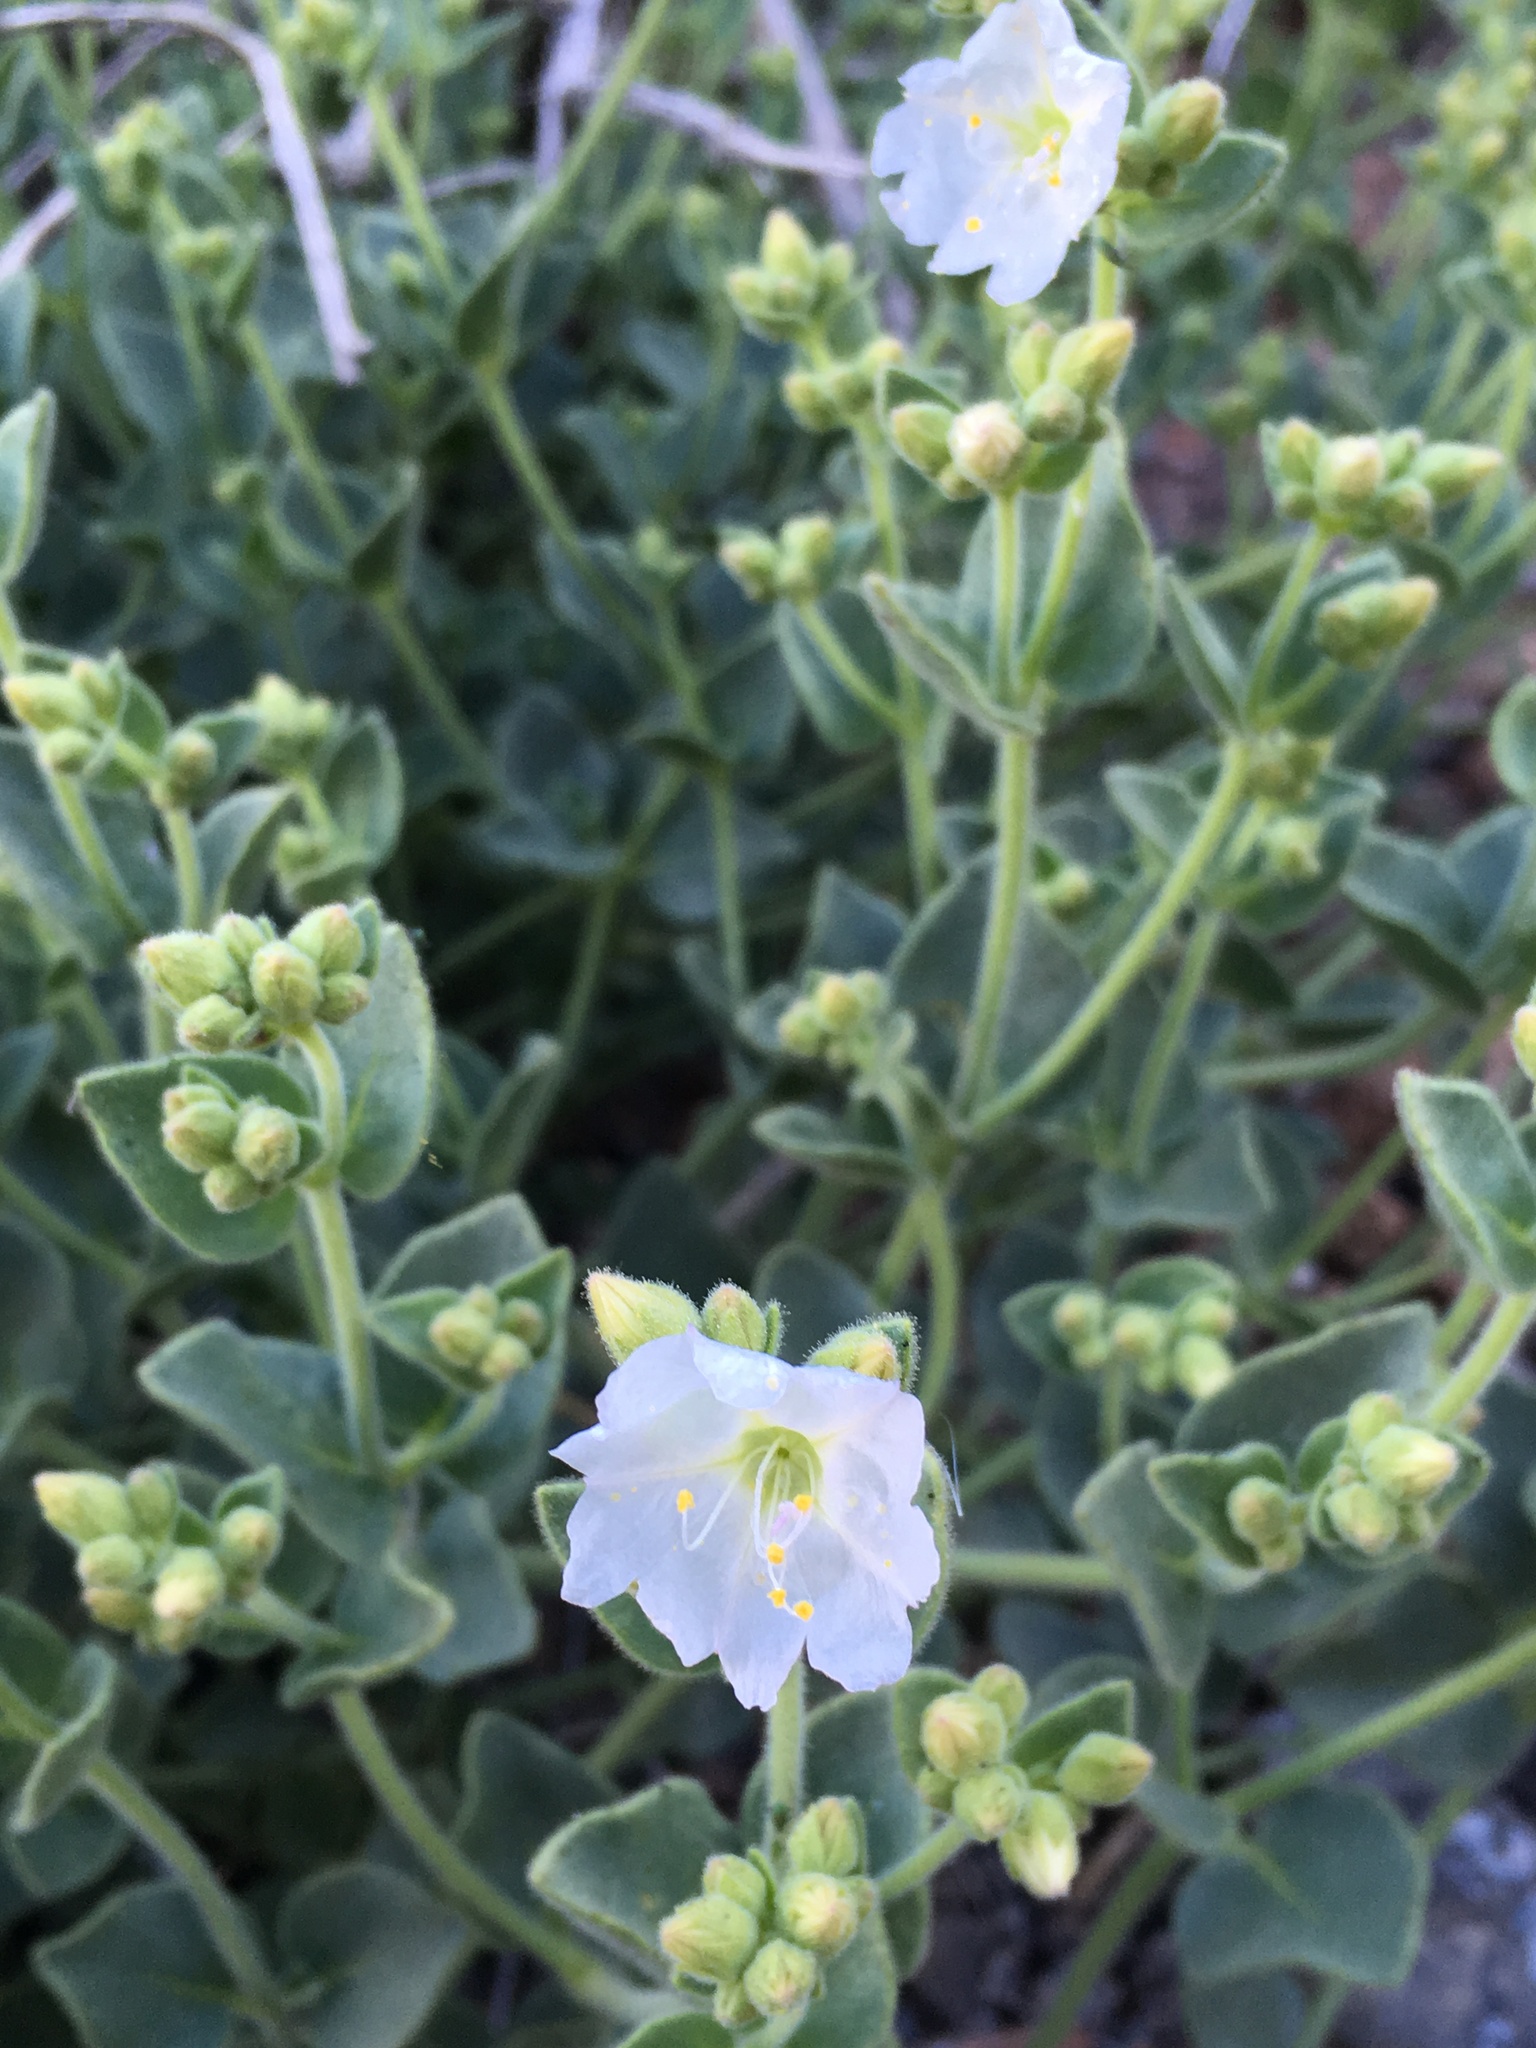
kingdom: Plantae
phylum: Tracheophyta
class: Magnoliopsida
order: Caryophyllales
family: Nyctaginaceae
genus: Mirabilis
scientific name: Mirabilis laevis
